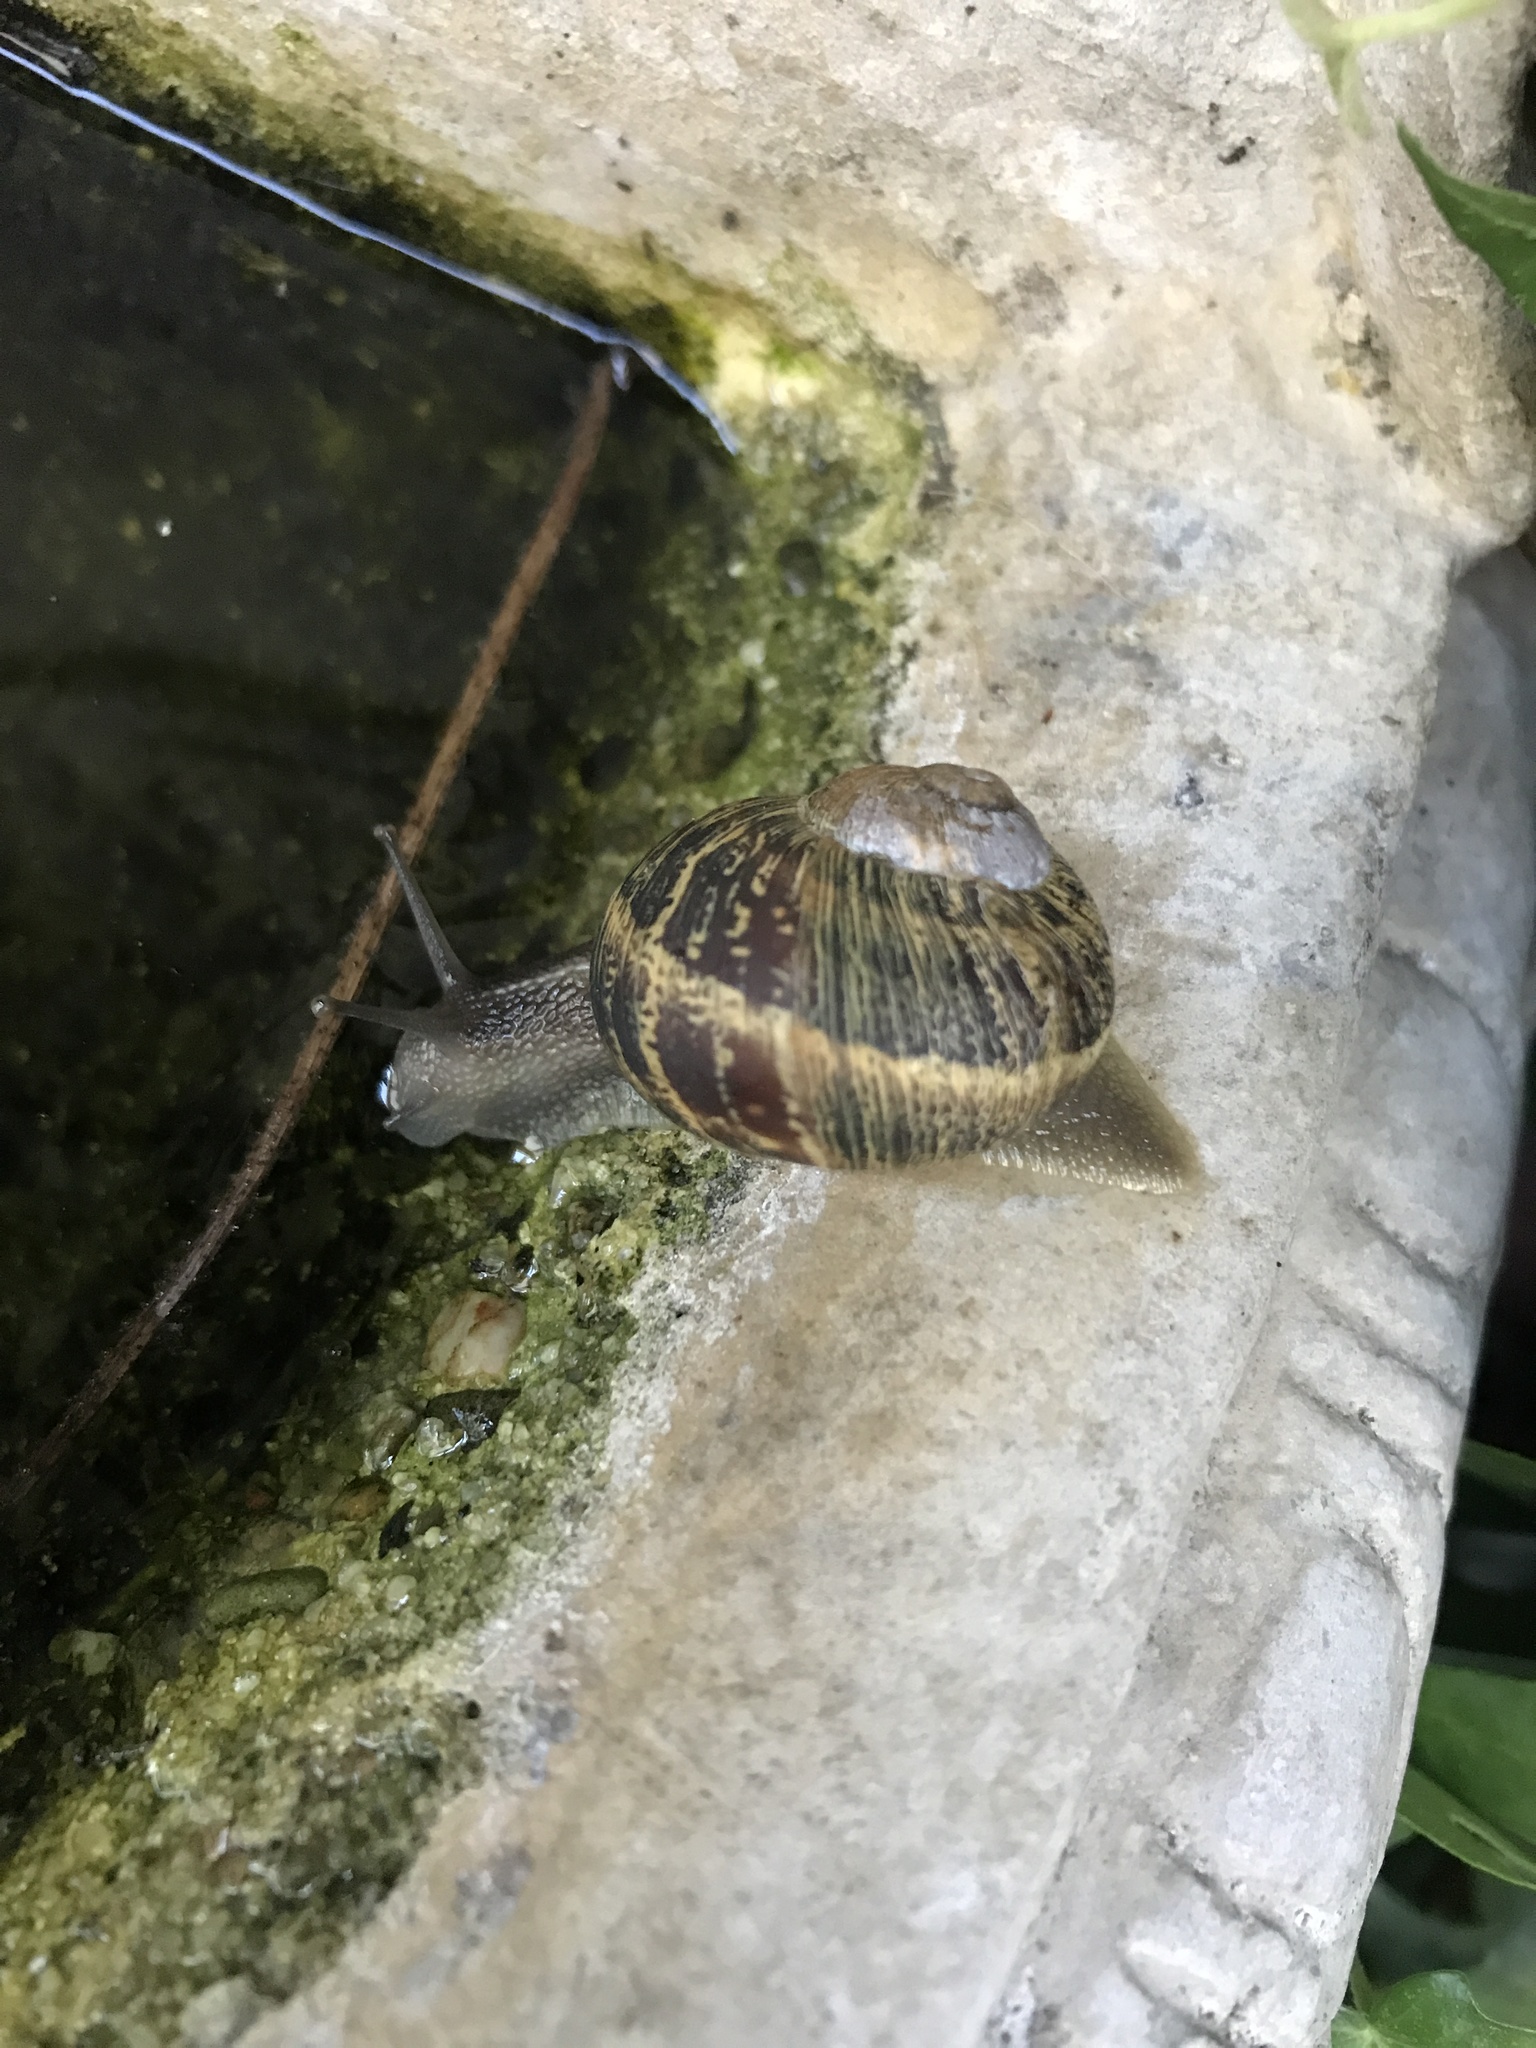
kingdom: Animalia
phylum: Mollusca
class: Gastropoda
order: Stylommatophora
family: Helicidae
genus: Cornu
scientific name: Cornu aspersum
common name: Brown garden snail
